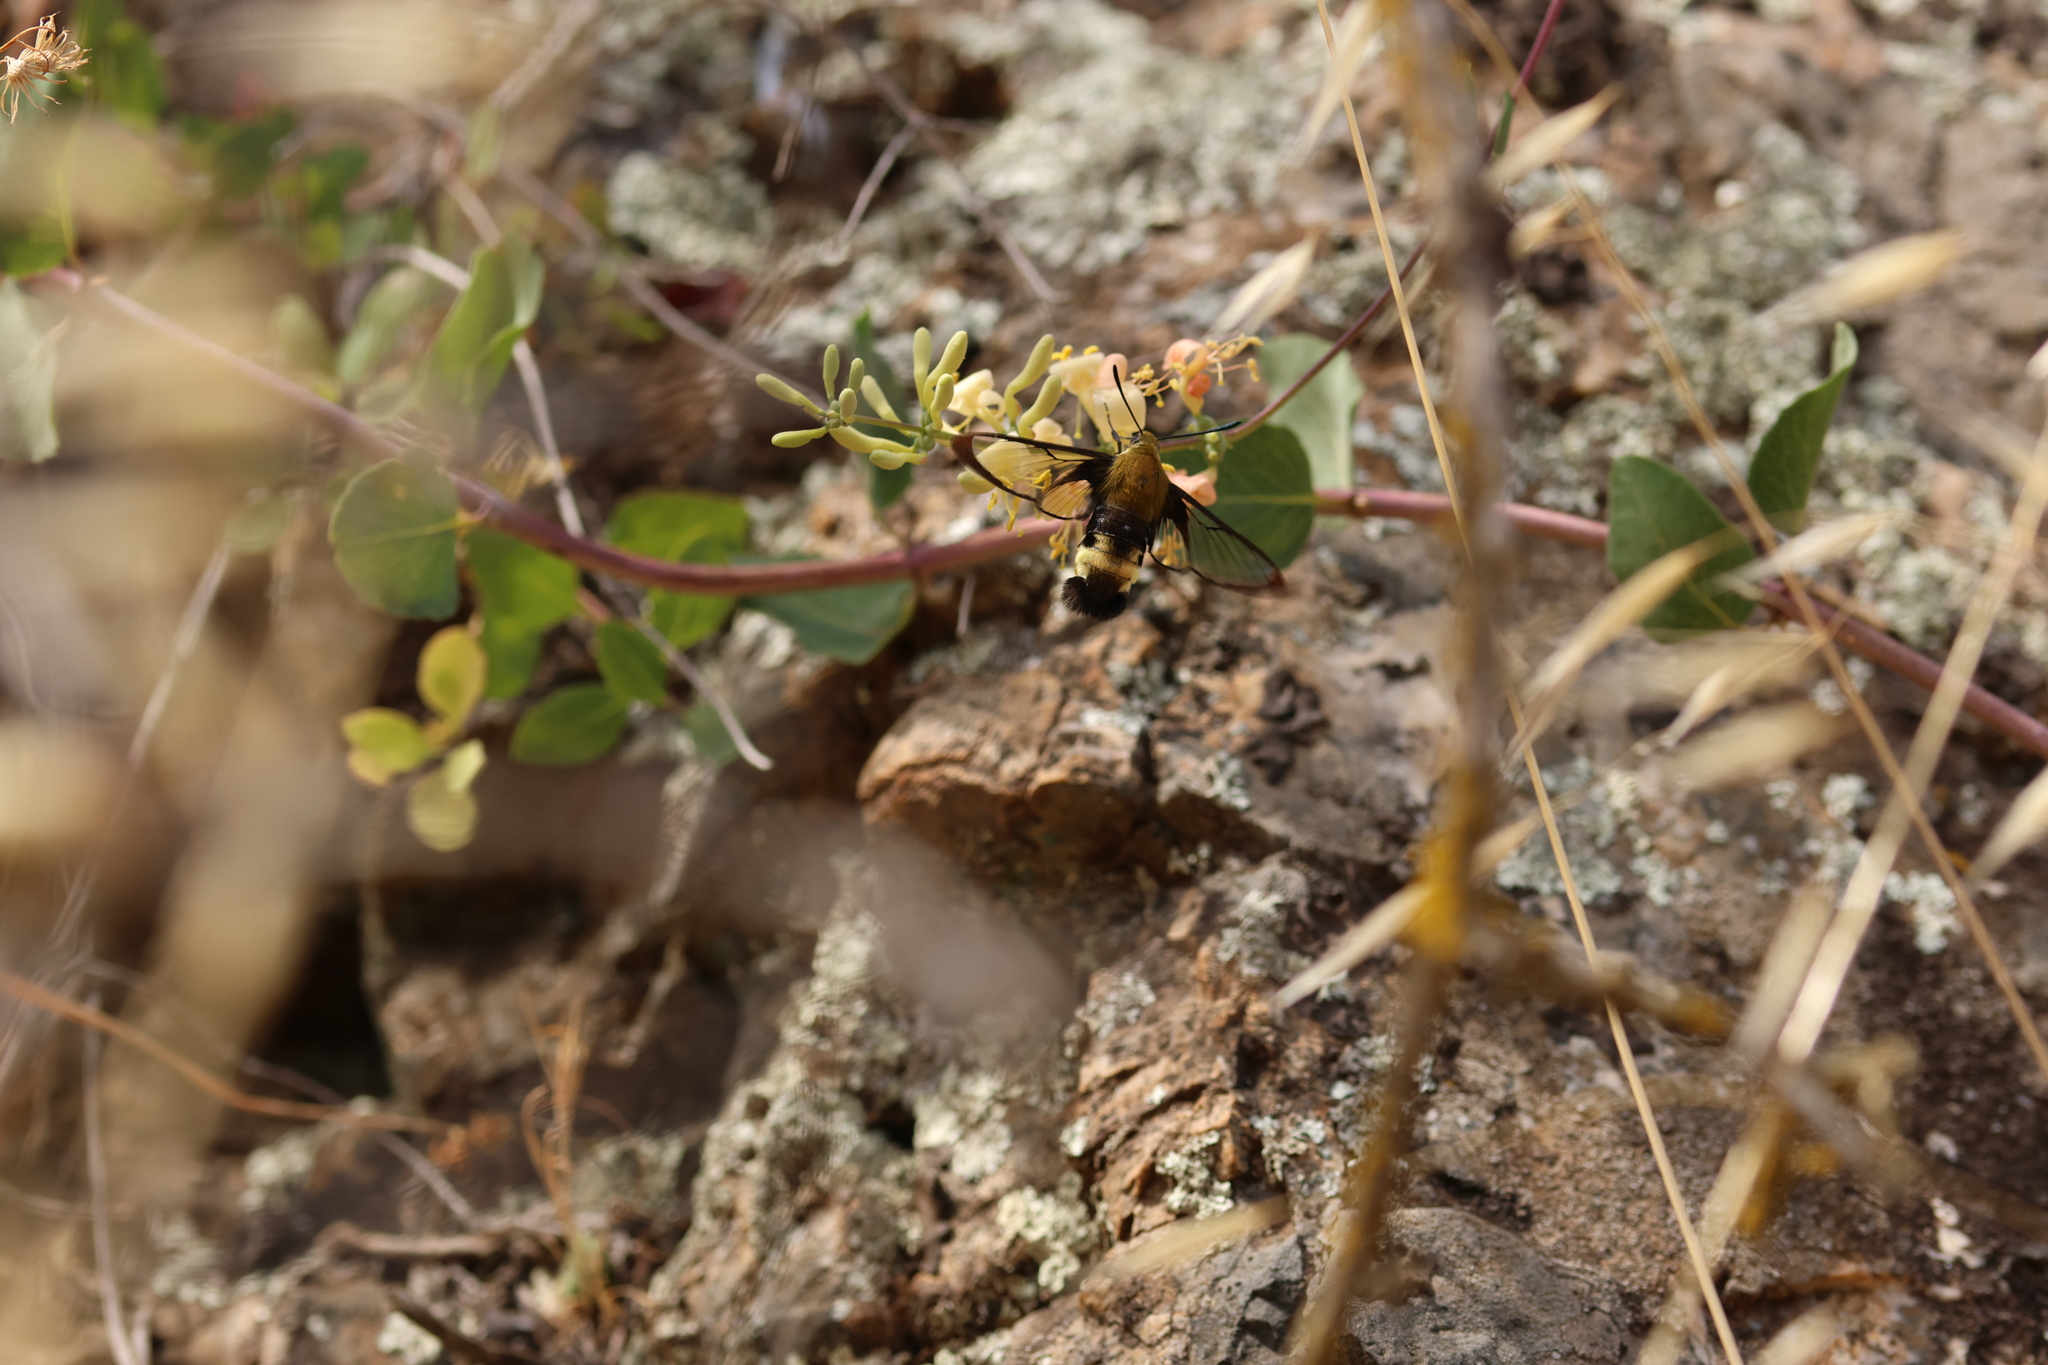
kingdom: Plantae
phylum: Tracheophyta
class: Magnoliopsida
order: Dipsacales
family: Caprifoliaceae
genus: Lonicera
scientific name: Lonicera subspicata
